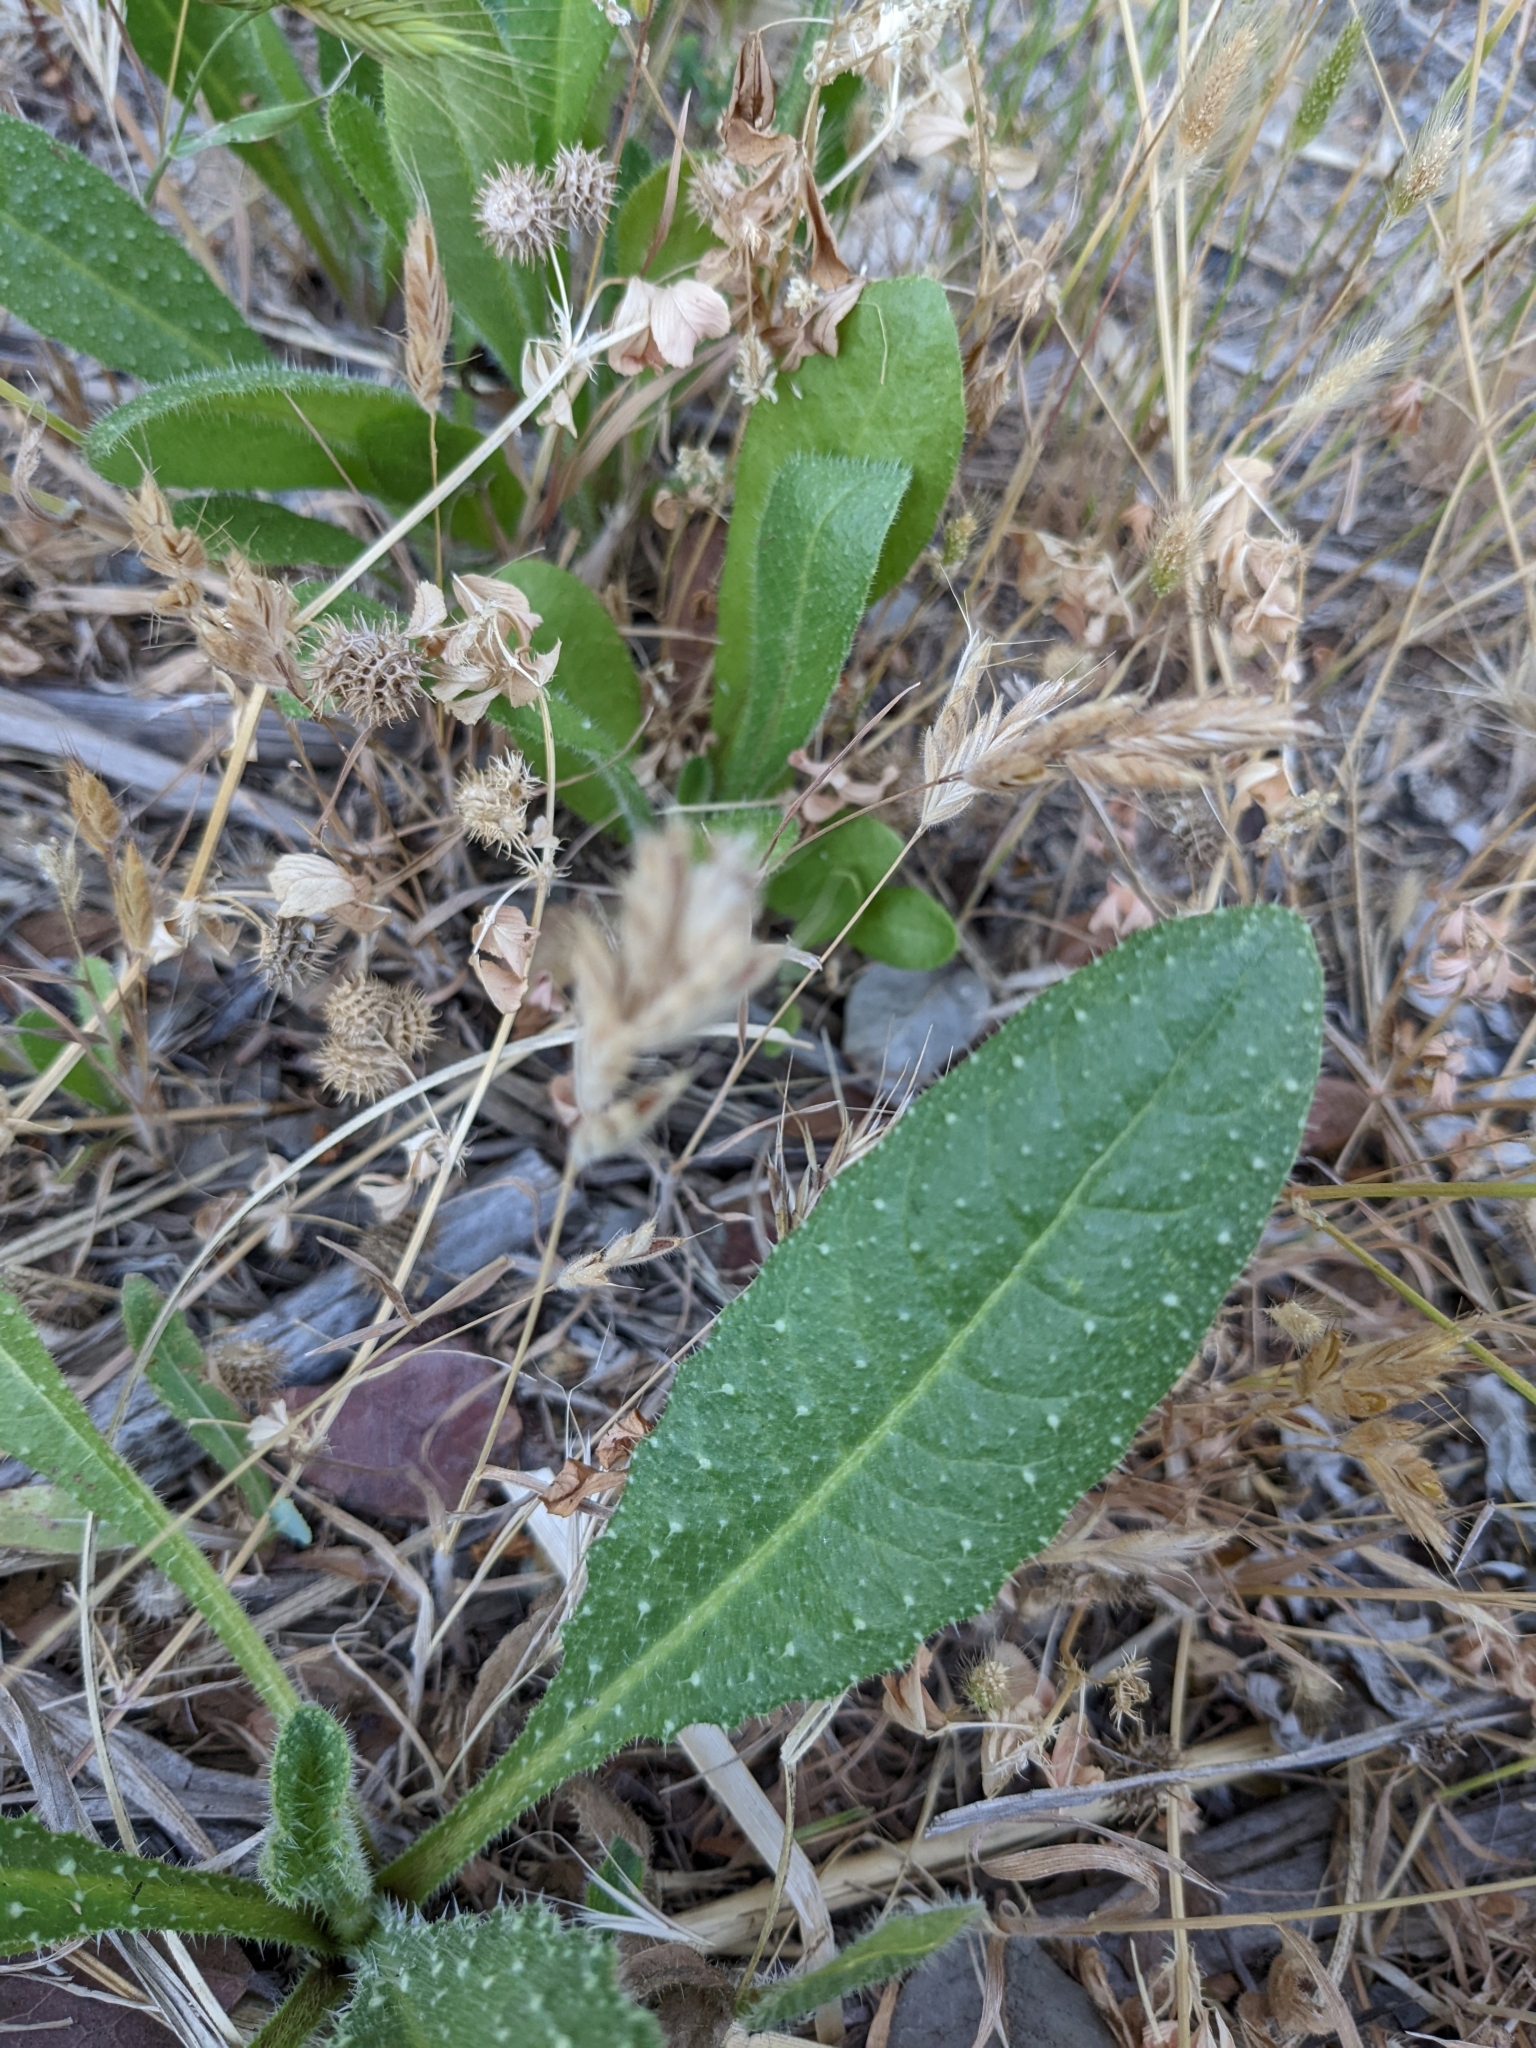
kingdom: Plantae
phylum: Tracheophyta
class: Magnoliopsida
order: Asterales
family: Asteraceae
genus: Helminthotheca
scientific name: Helminthotheca echioides
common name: Ox-tongue
